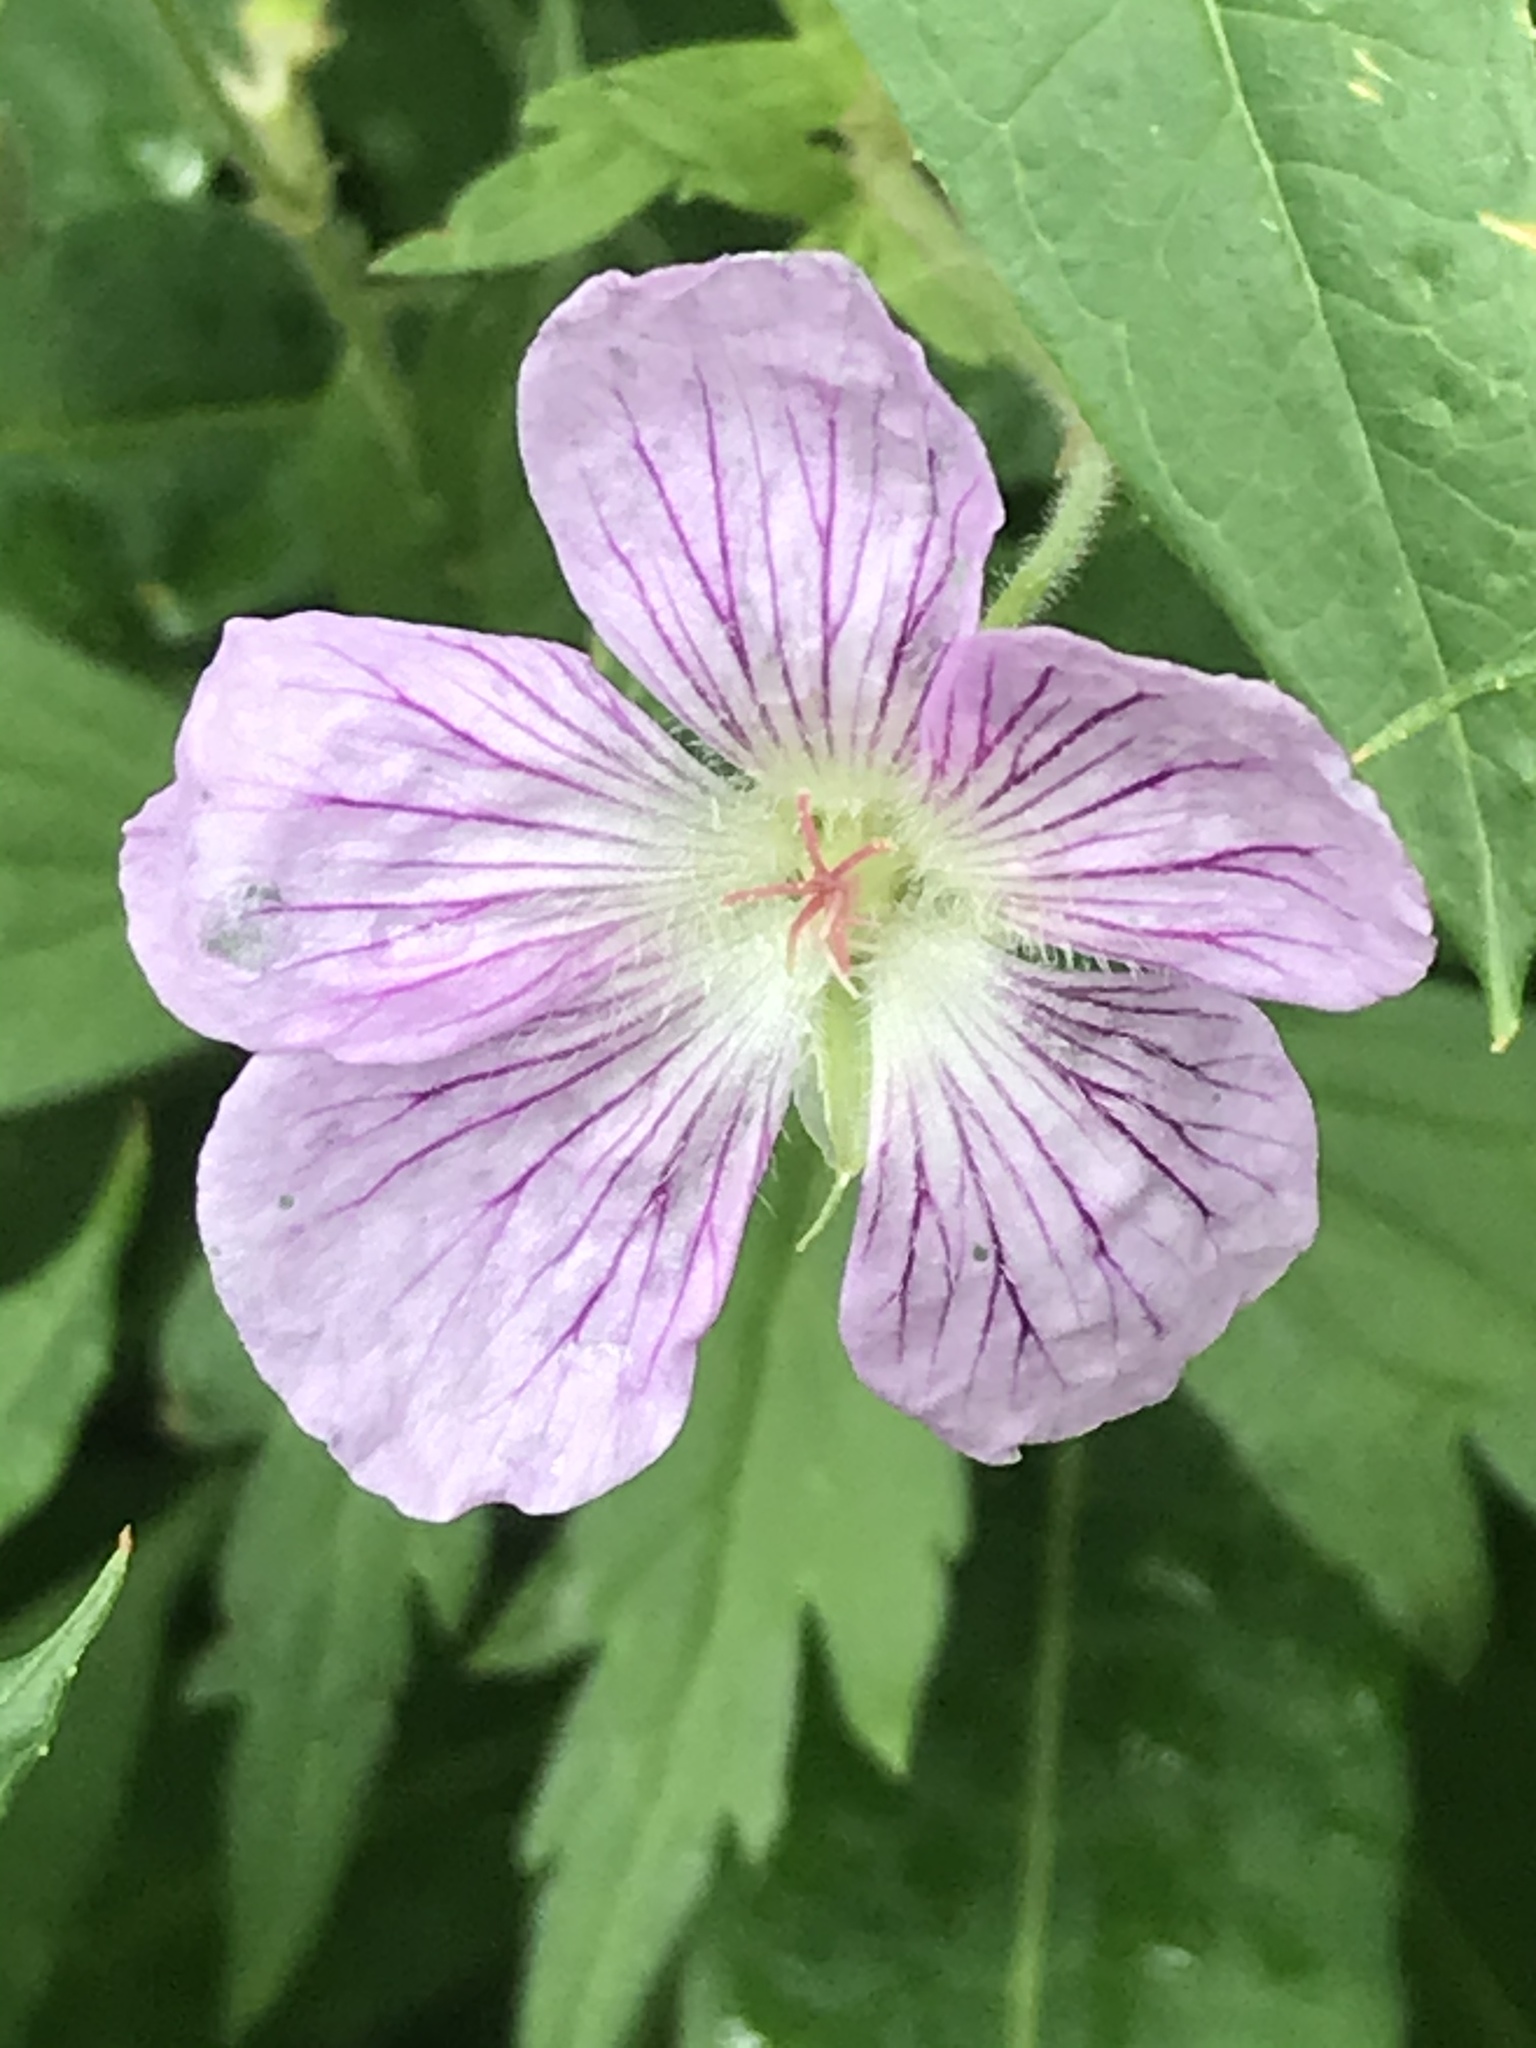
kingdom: Plantae
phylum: Tracheophyta
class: Magnoliopsida
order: Geraniales
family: Geraniaceae
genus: Geranium
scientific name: Geranium viscosissimum
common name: Purple geranium
